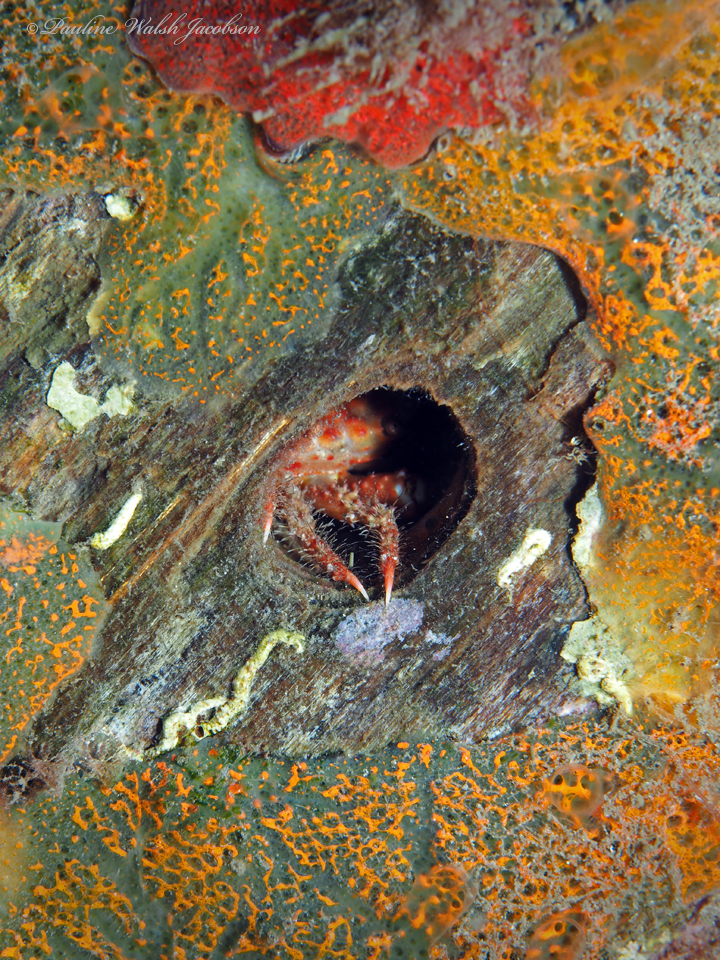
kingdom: Animalia
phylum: Arthropoda
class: Malacostraca
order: Decapoda
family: Mithracidae
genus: Mithraculus
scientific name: Mithraculus forceps
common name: Red-ridged clinging crab
